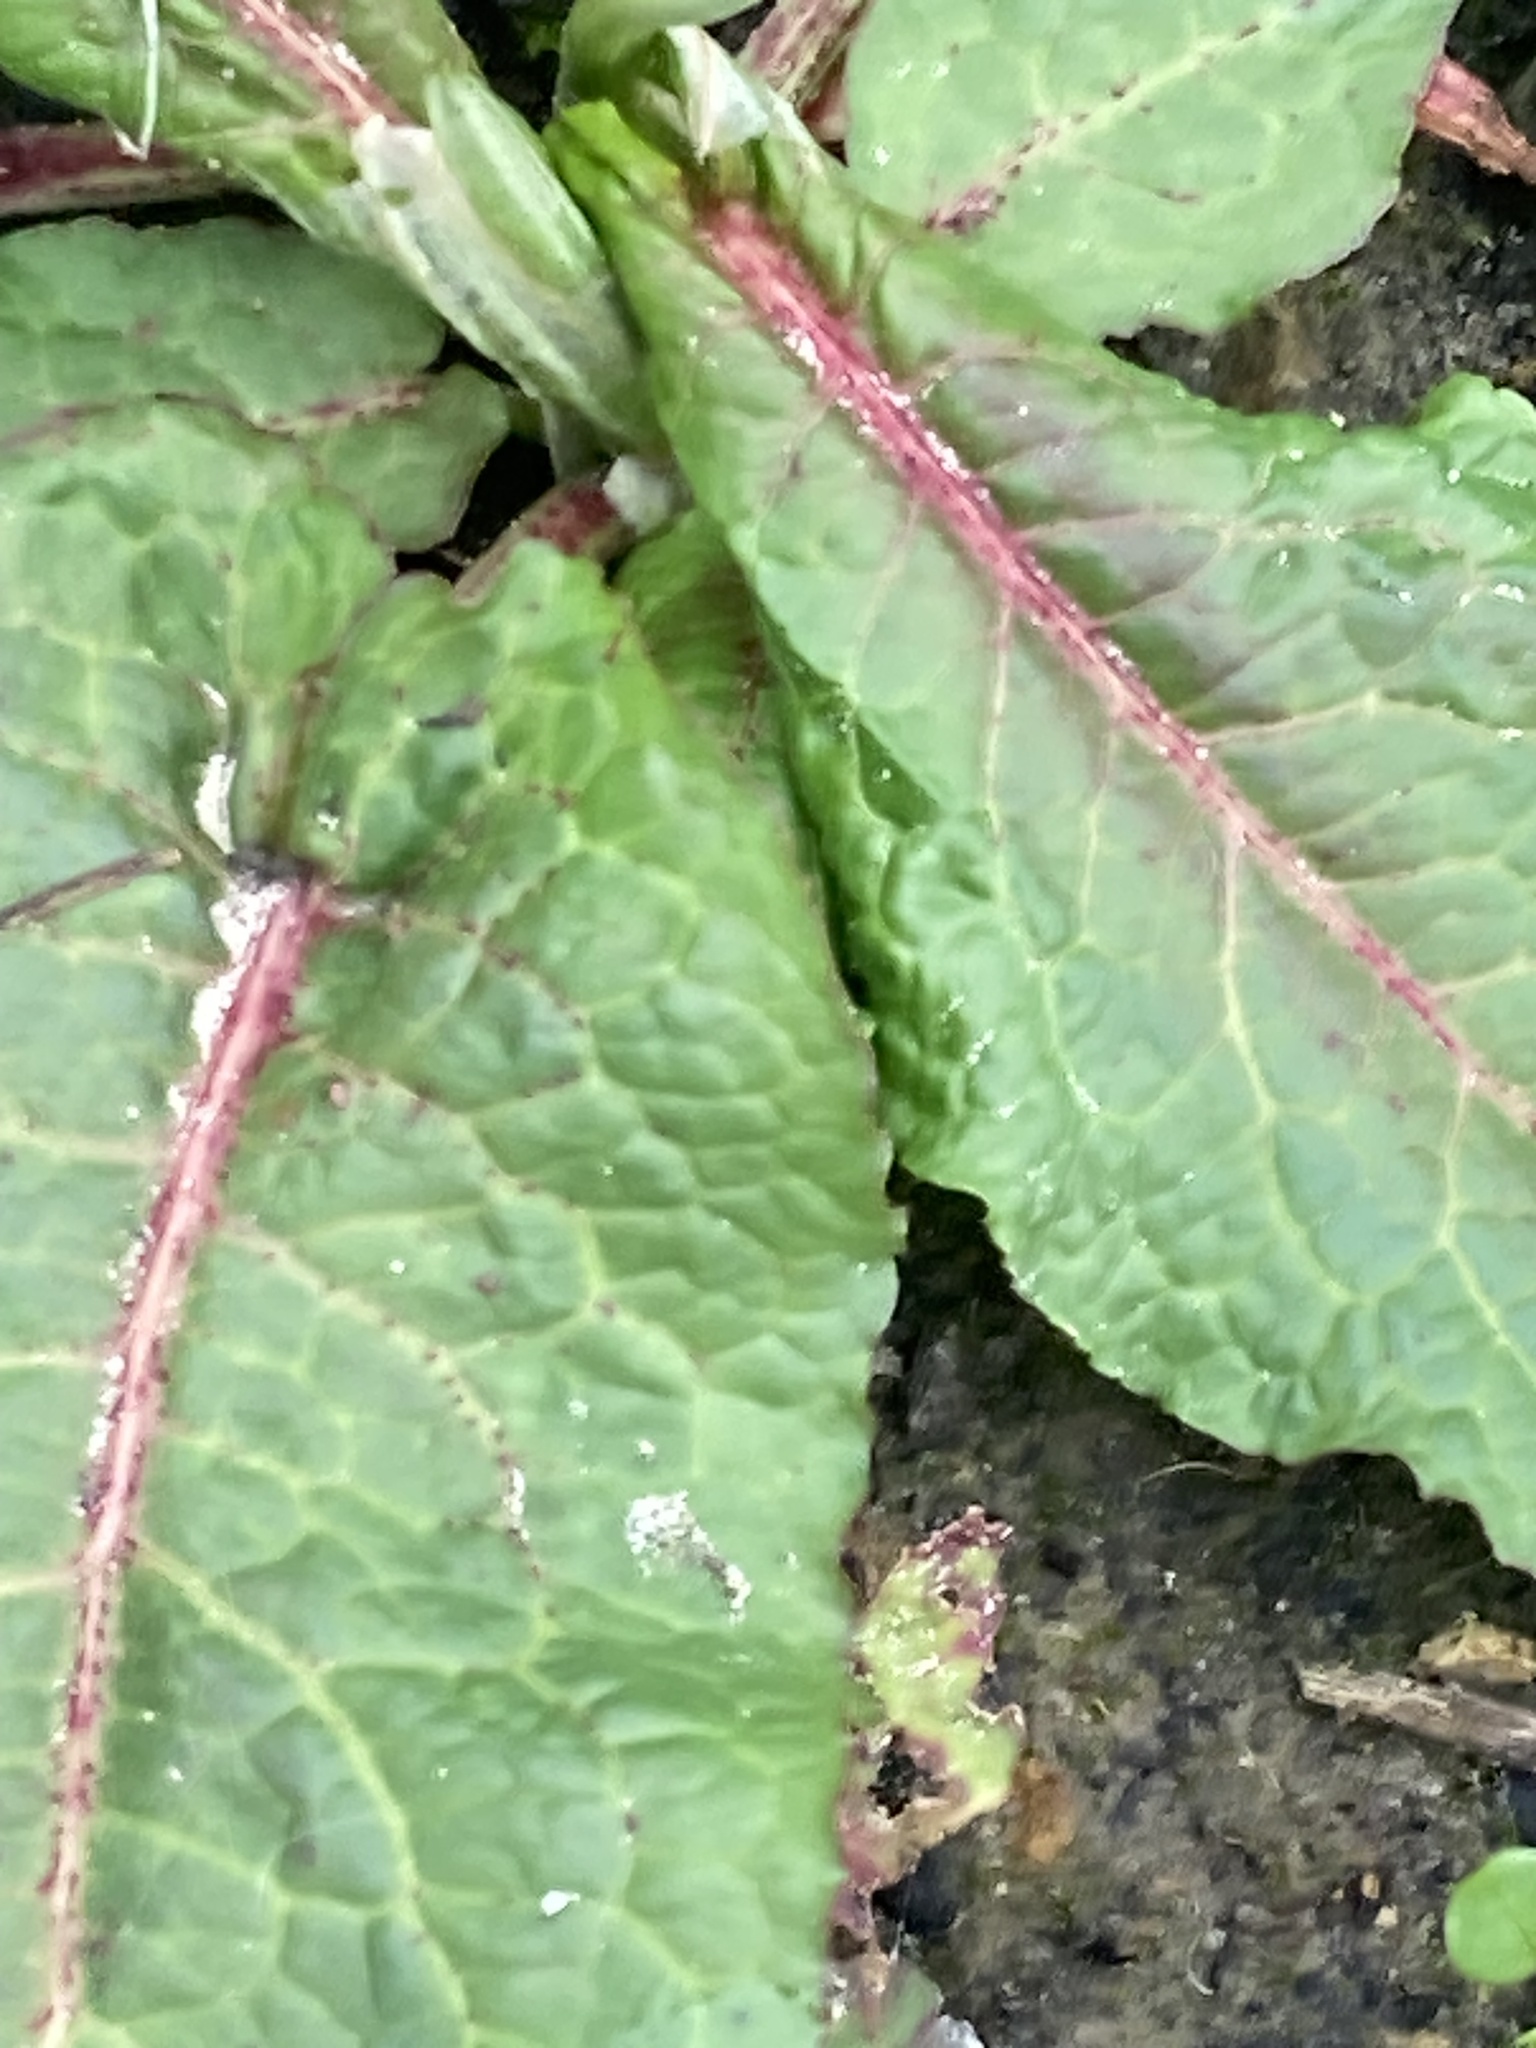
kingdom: Plantae
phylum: Tracheophyta
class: Magnoliopsida
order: Caryophyllales
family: Polygonaceae
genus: Rumex
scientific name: Rumex obtusifolius
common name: Bitter dock
